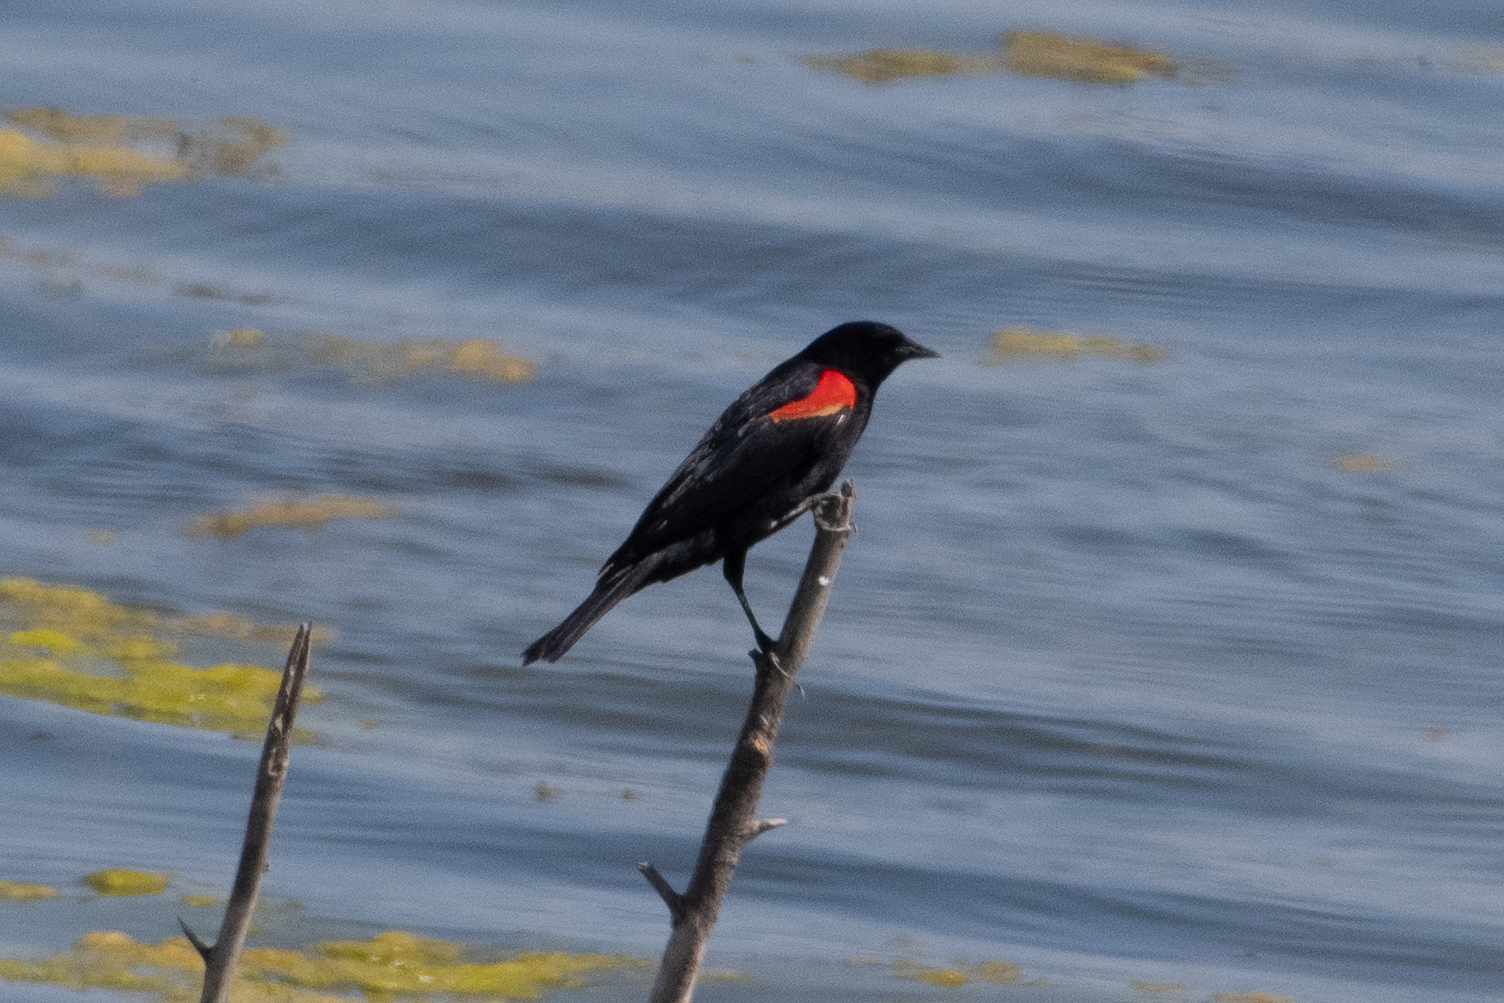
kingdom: Animalia
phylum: Chordata
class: Aves
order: Passeriformes
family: Icteridae
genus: Agelaius
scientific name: Agelaius phoeniceus
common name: Red-winged blackbird
